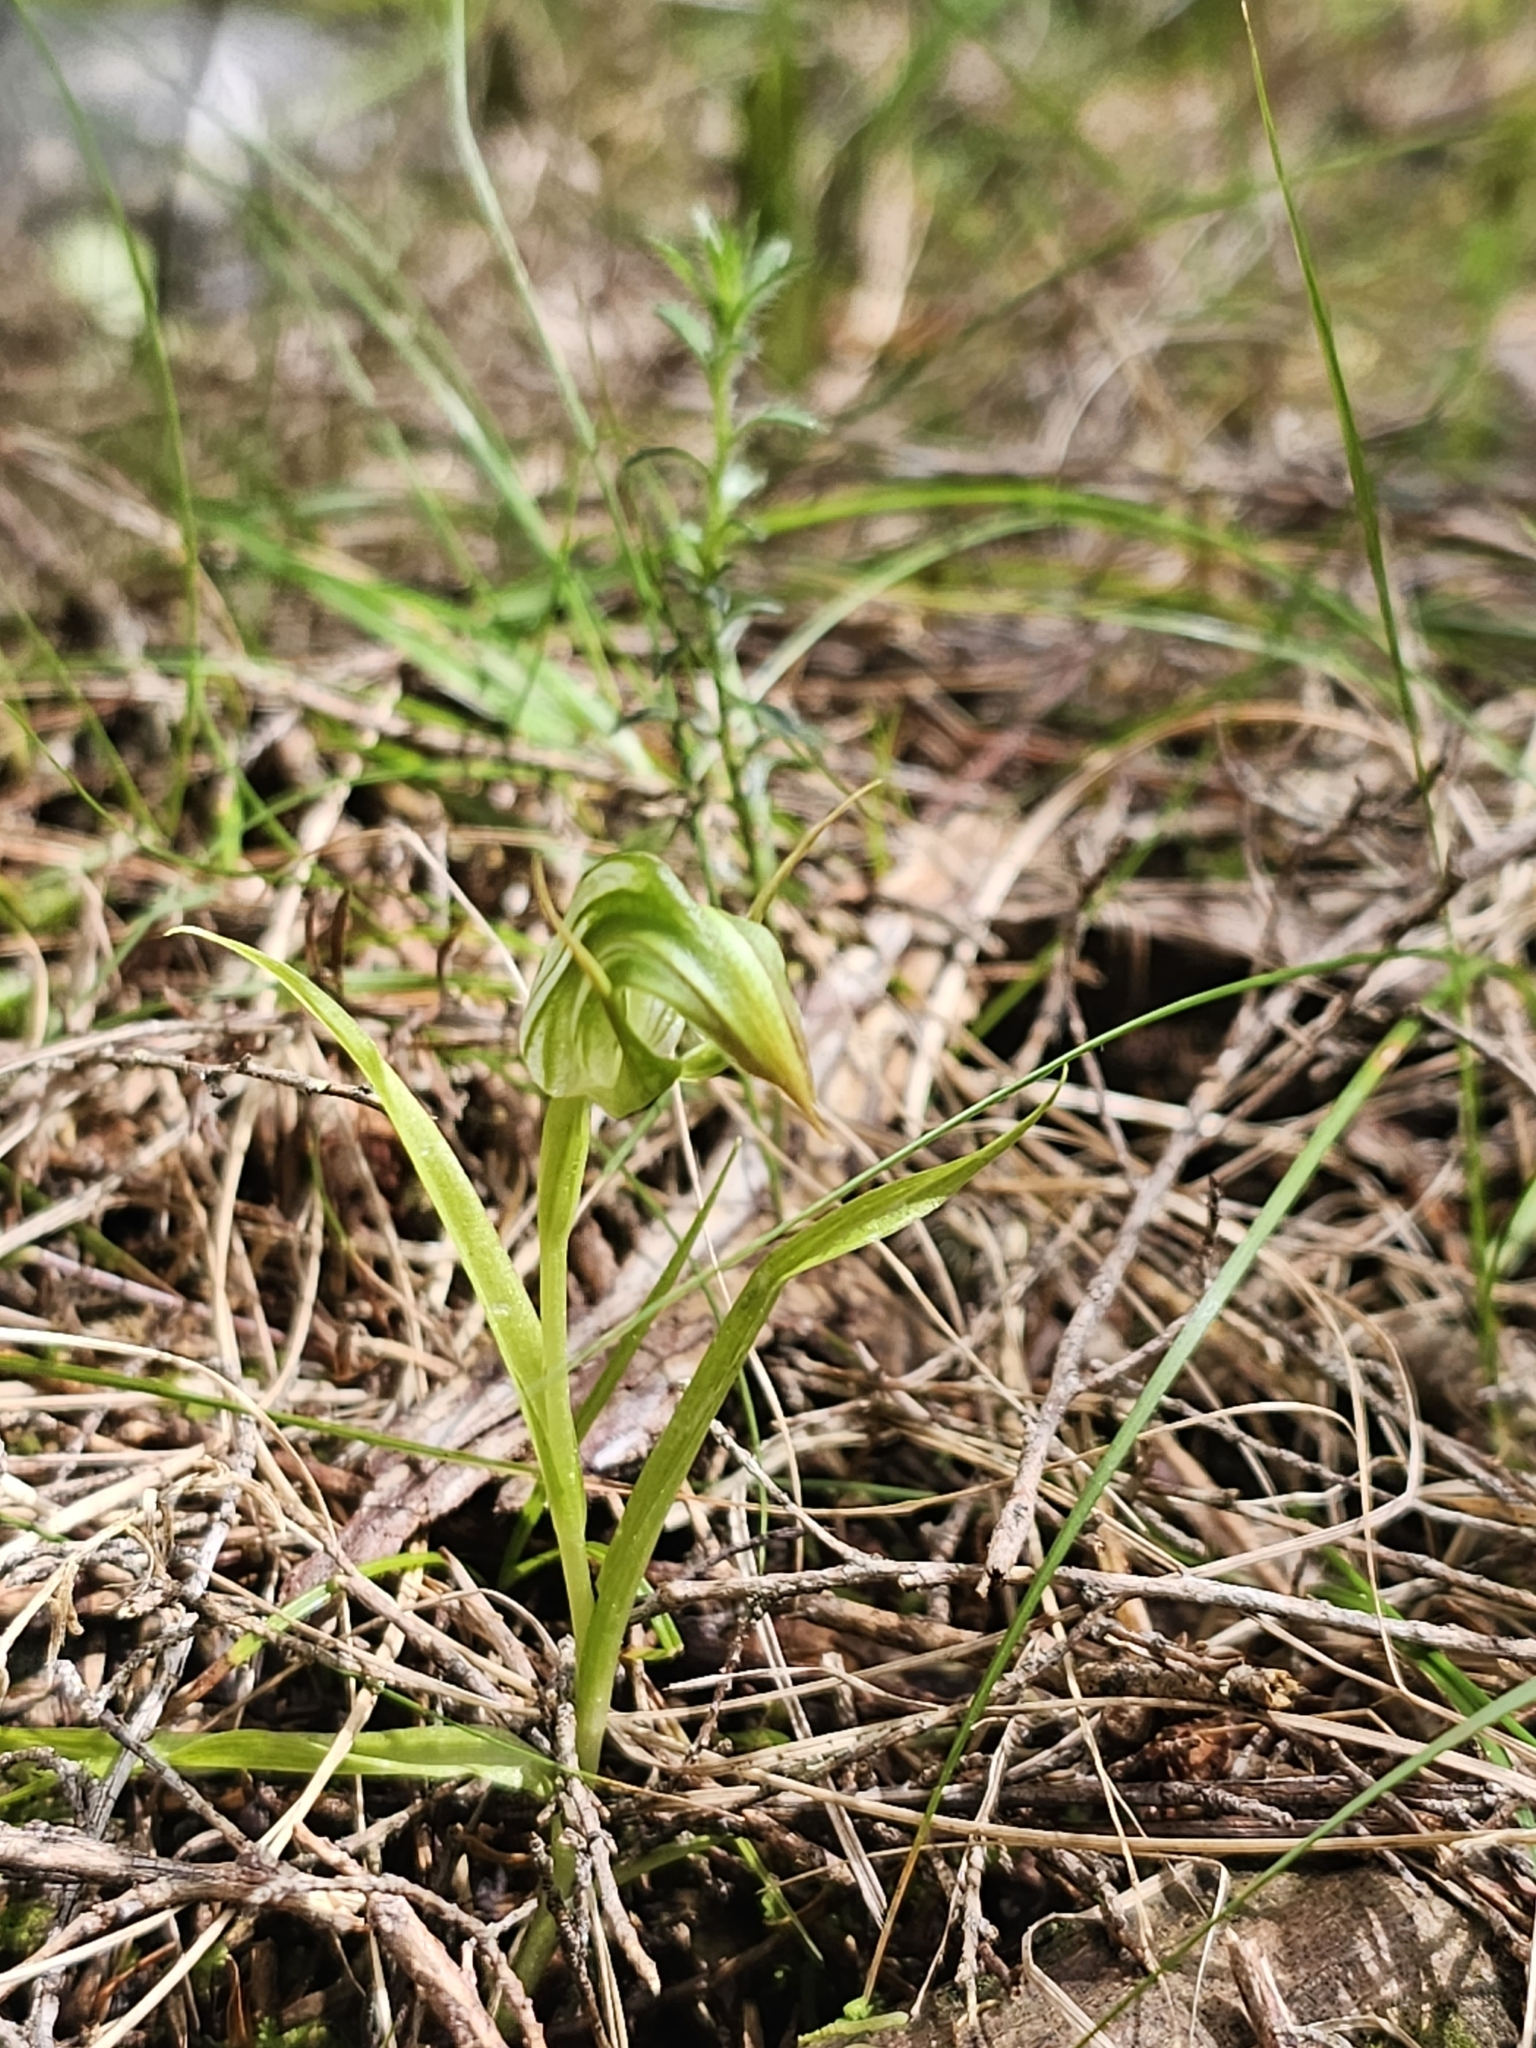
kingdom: Plantae
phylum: Tracheophyta
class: Liliopsida
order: Asparagales
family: Orchidaceae
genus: Pterostylis
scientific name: Pterostylis graminea
